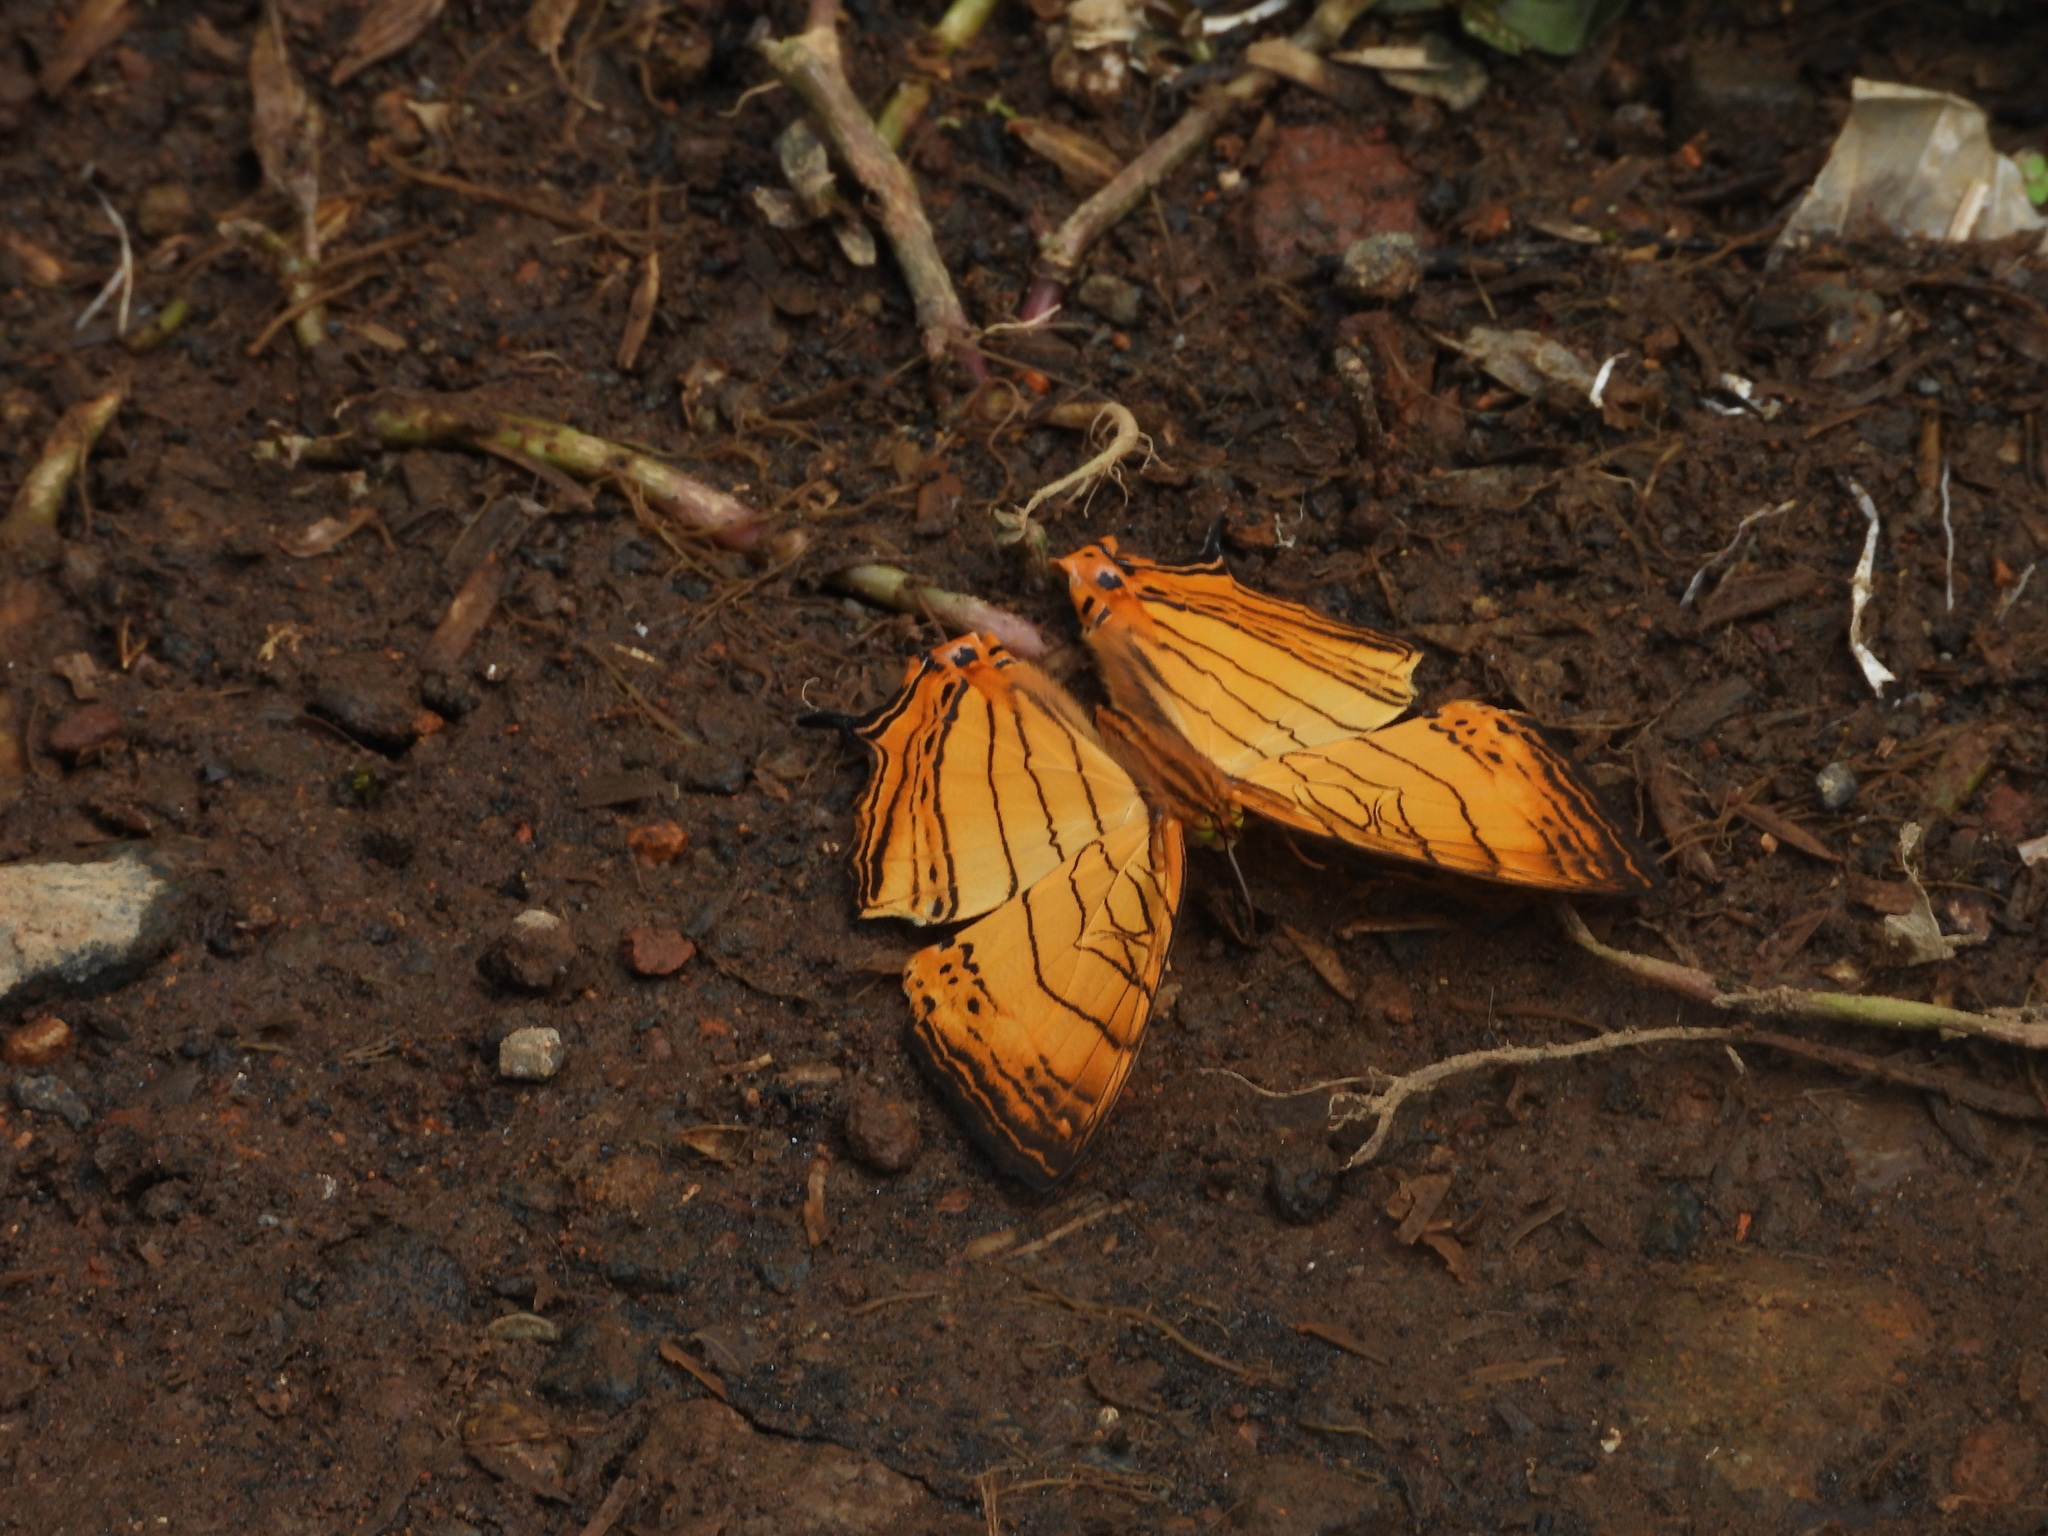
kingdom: Animalia
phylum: Arthropoda
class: Insecta
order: Lepidoptera
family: Nymphalidae
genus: Cyrestis
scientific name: Cyrestis lutea
